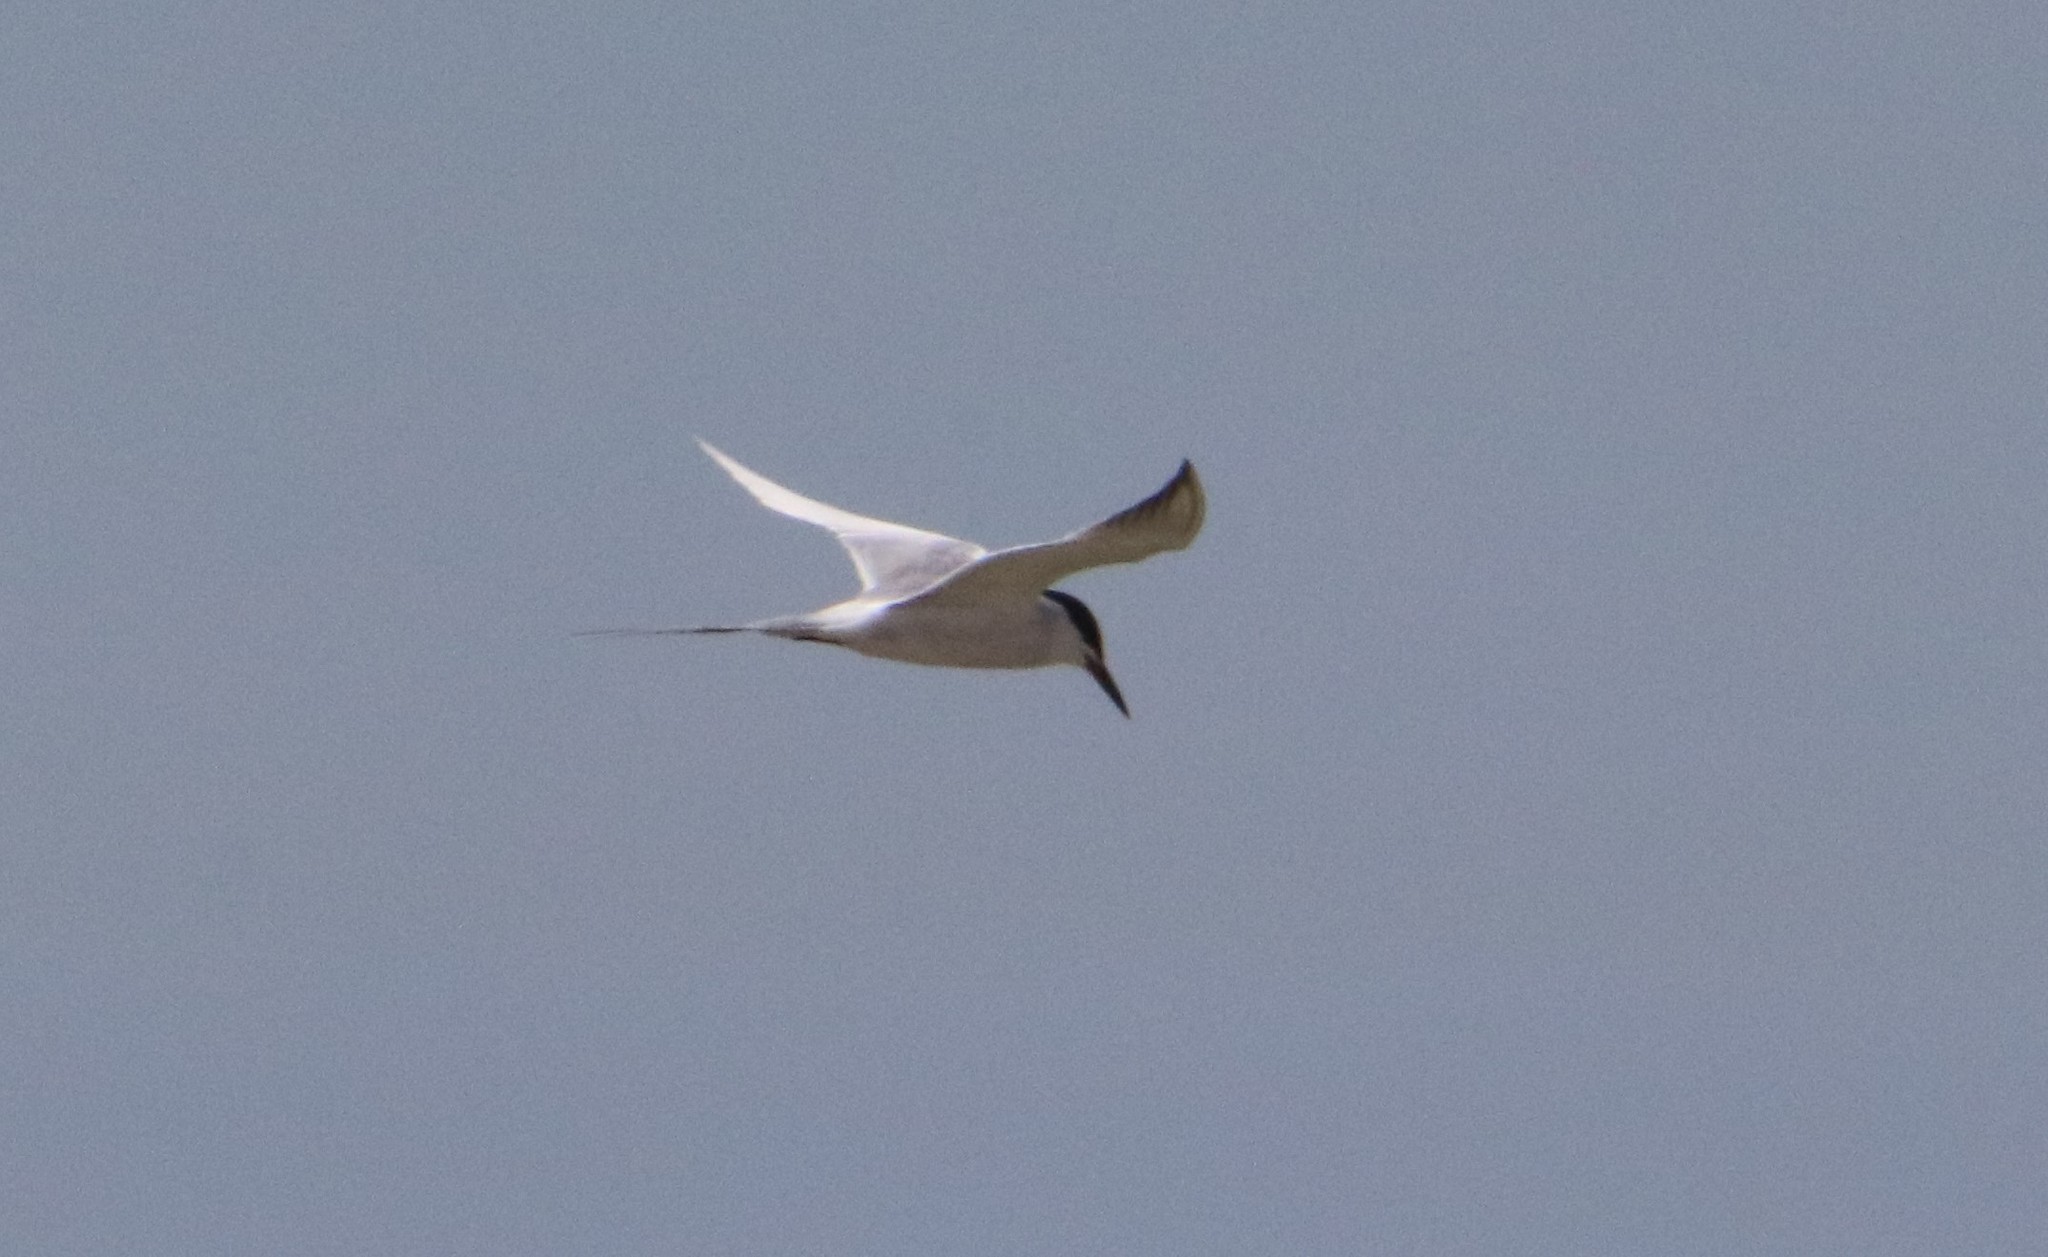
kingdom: Animalia
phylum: Chordata
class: Aves
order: Charadriiformes
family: Laridae
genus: Sterna
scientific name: Sterna forsteri
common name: Forster's tern
